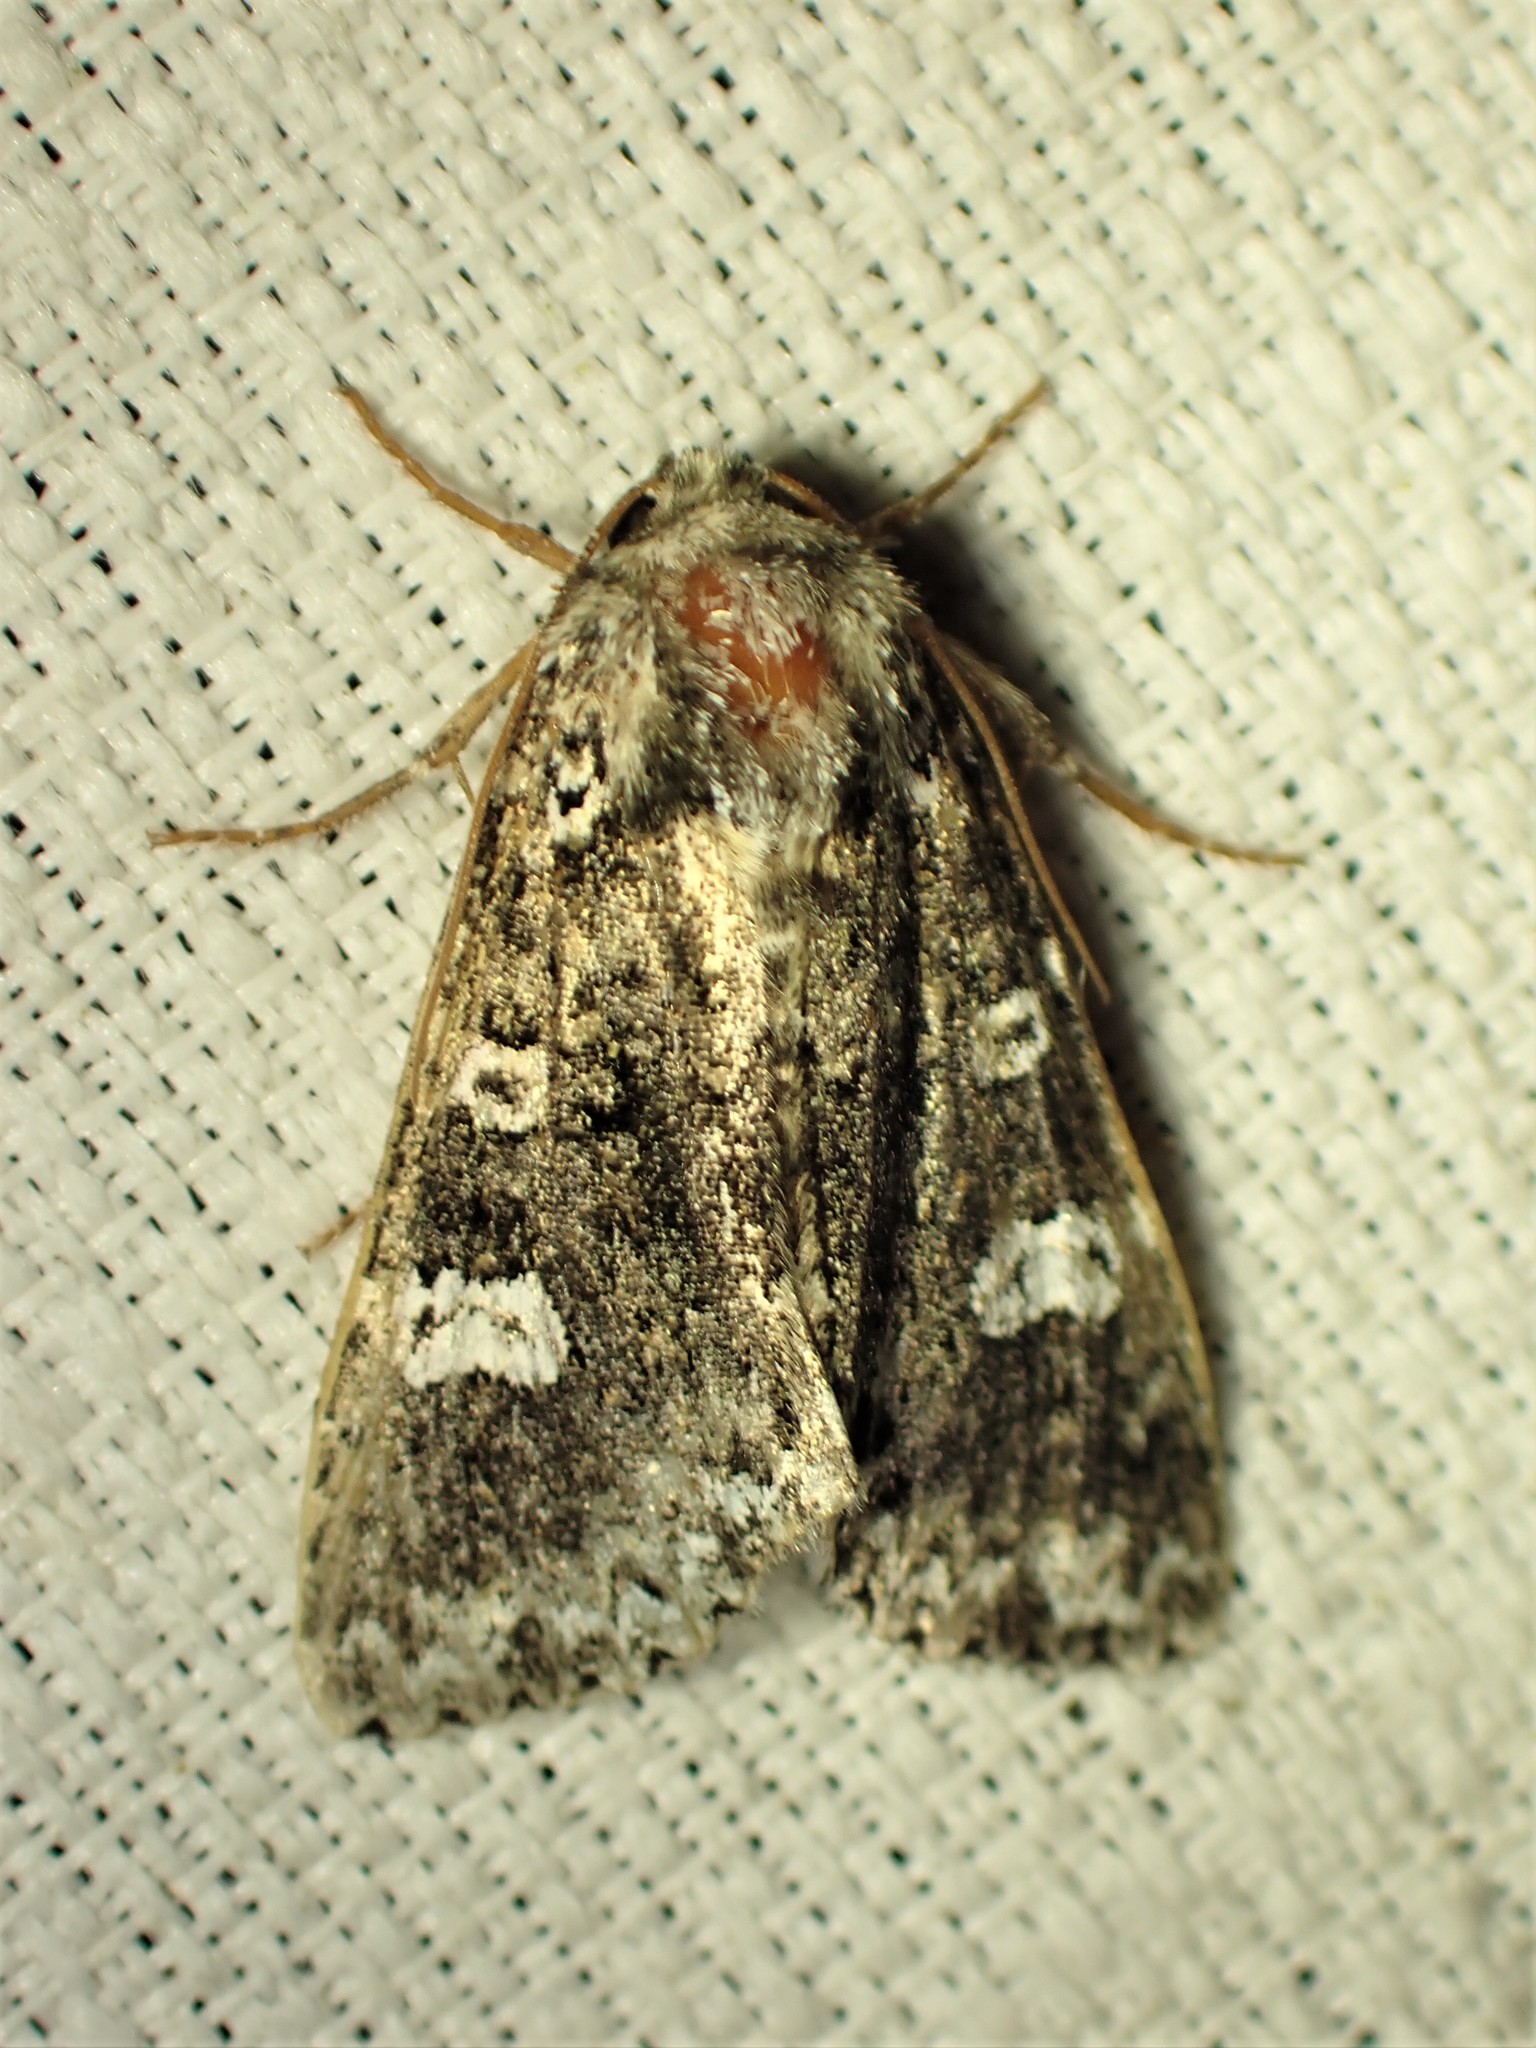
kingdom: Animalia
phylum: Arthropoda
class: Insecta
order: Lepidoptera
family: Noctuidae
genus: Melanchra
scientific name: Melanchra adjuncta
